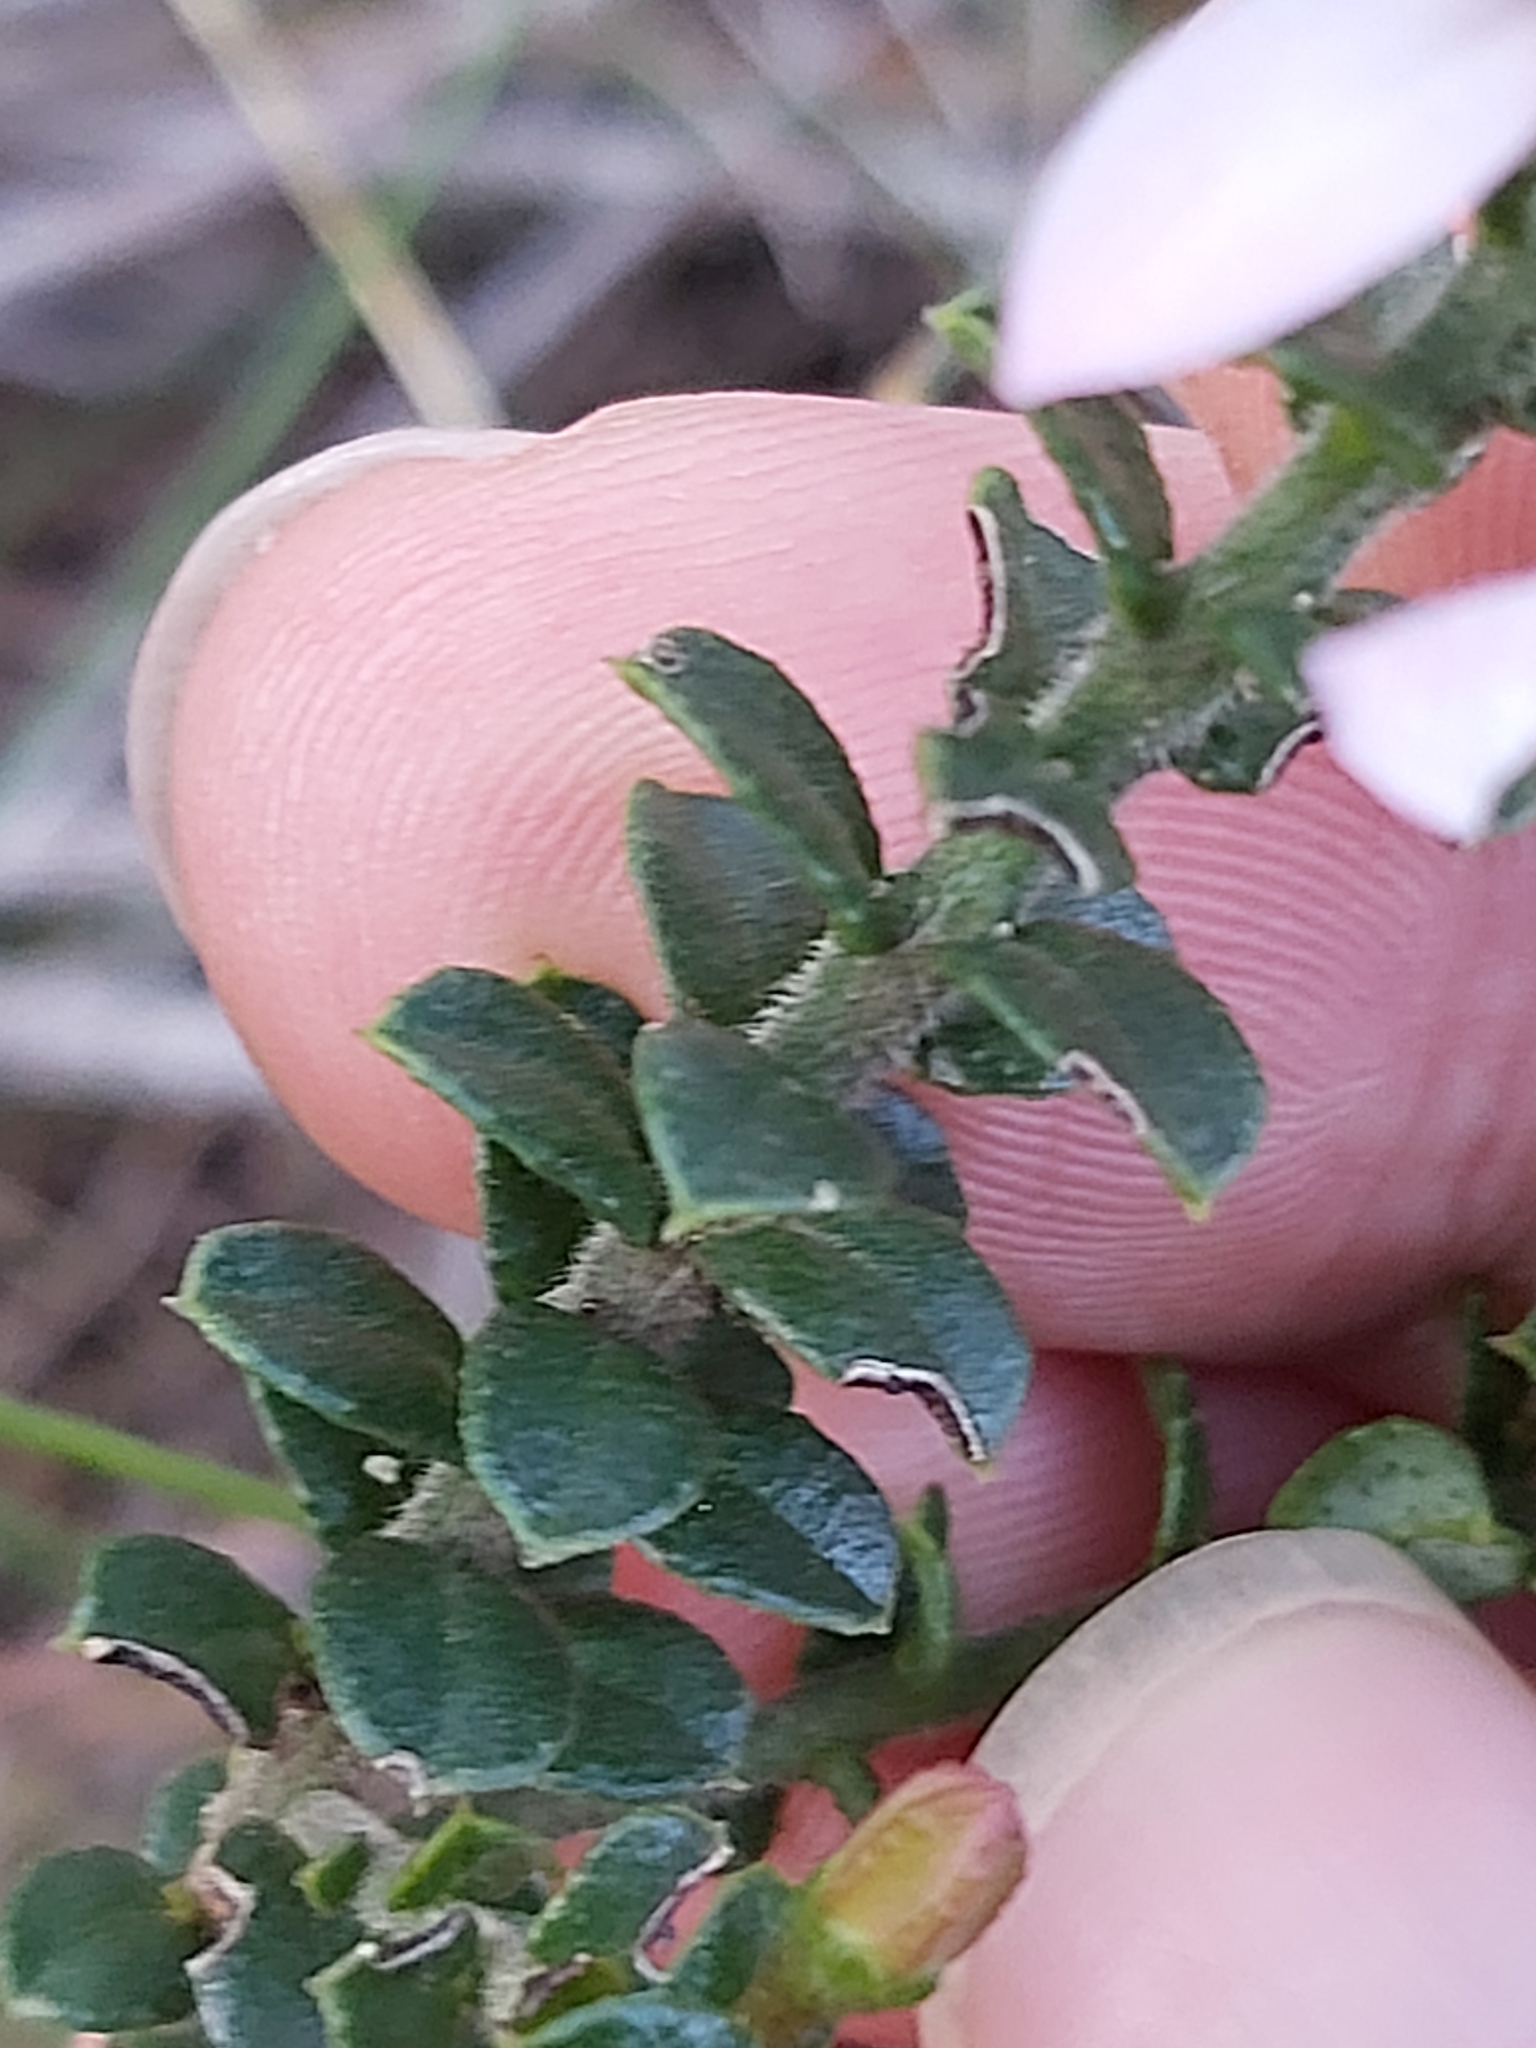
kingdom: Plantae
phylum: Tracheophyta
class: Magnoliopsida
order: Sapindales
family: Rutaceae
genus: Philotheca
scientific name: Philotheca buxifolia
